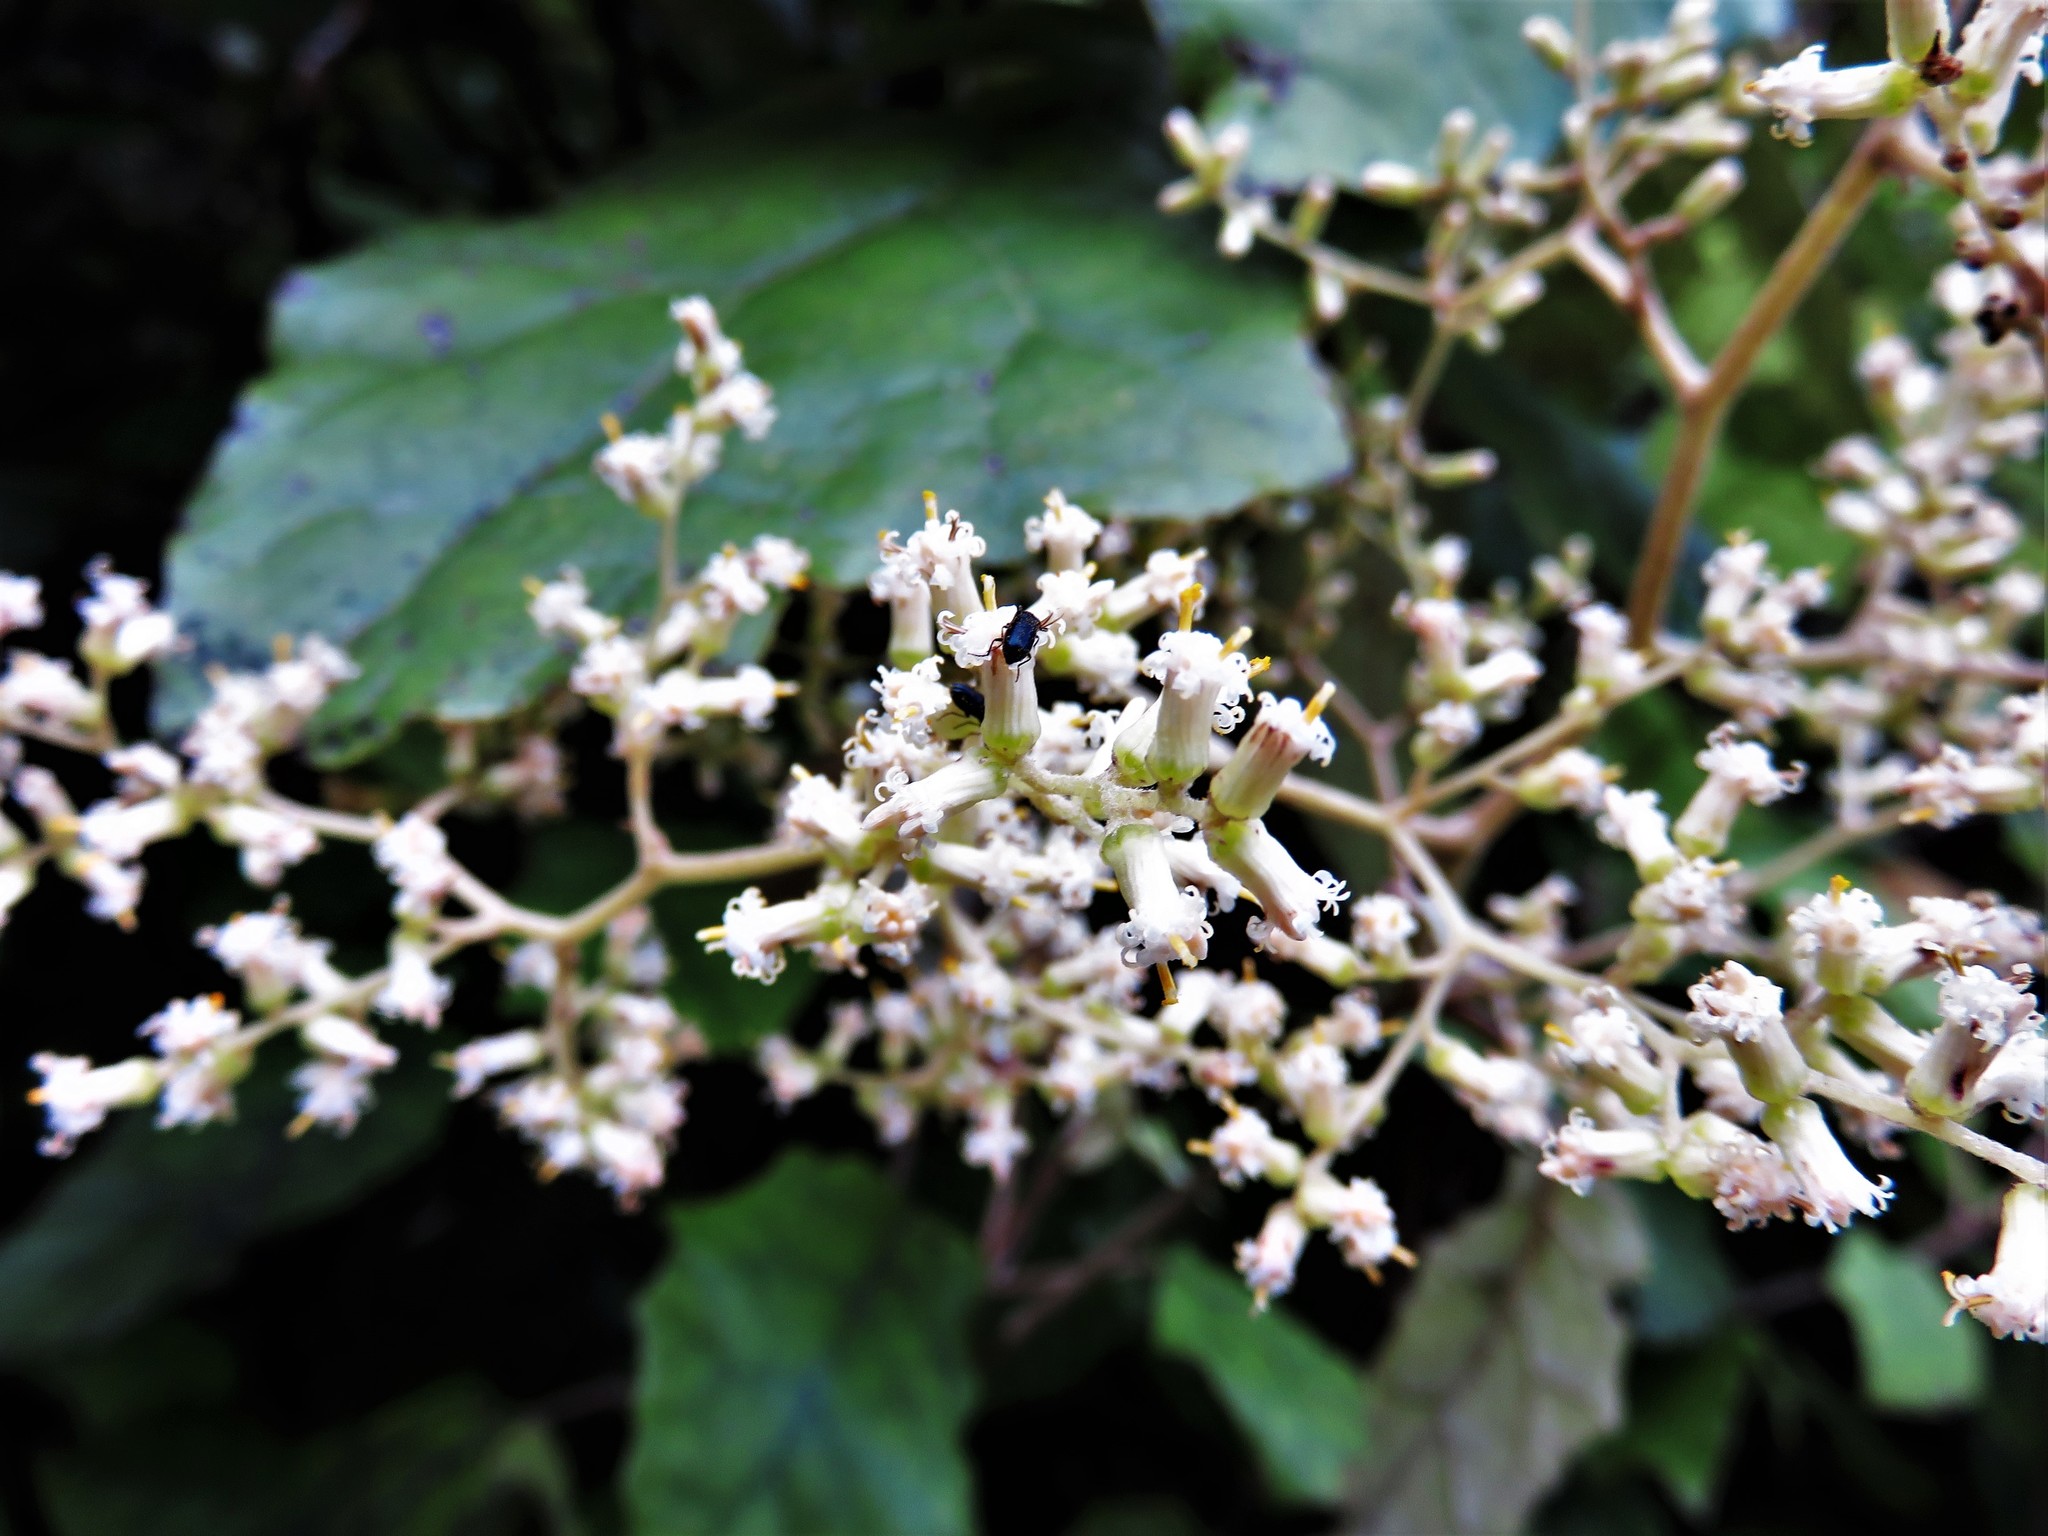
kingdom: Plantae
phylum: Tracheophyta
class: Magnoliopsida
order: Asterales
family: Asteraceae
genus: Brachyglottis
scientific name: Brachyglottis repanda
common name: Hedge ragwort
